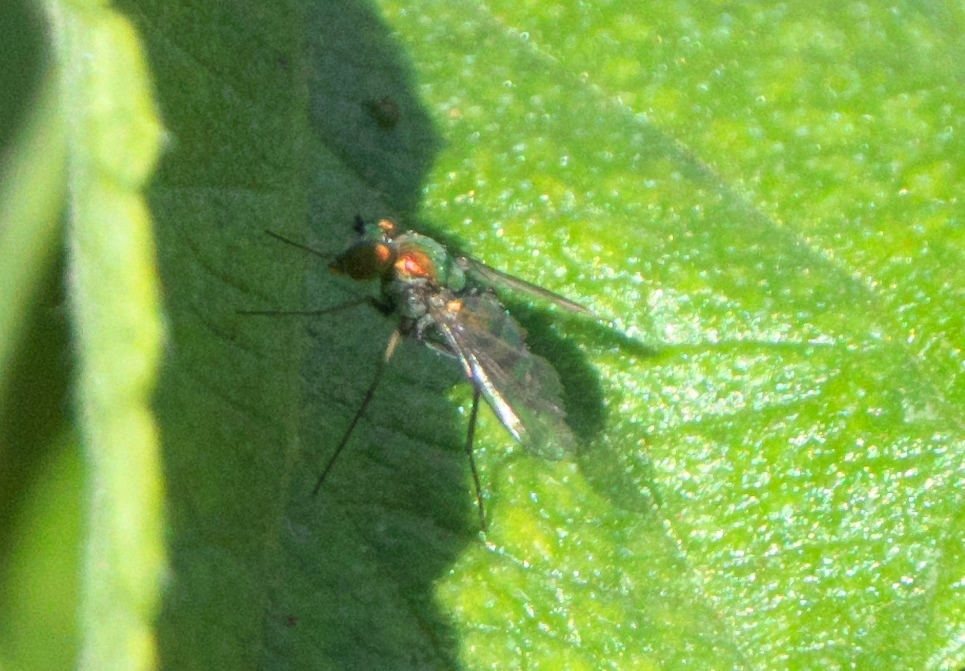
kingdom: Animalia
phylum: Arthropoda
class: Insecta
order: Diptera
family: Dolichopodidae
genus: Condylostylus
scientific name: Condylostylus longicornis
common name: Long-legged fly
